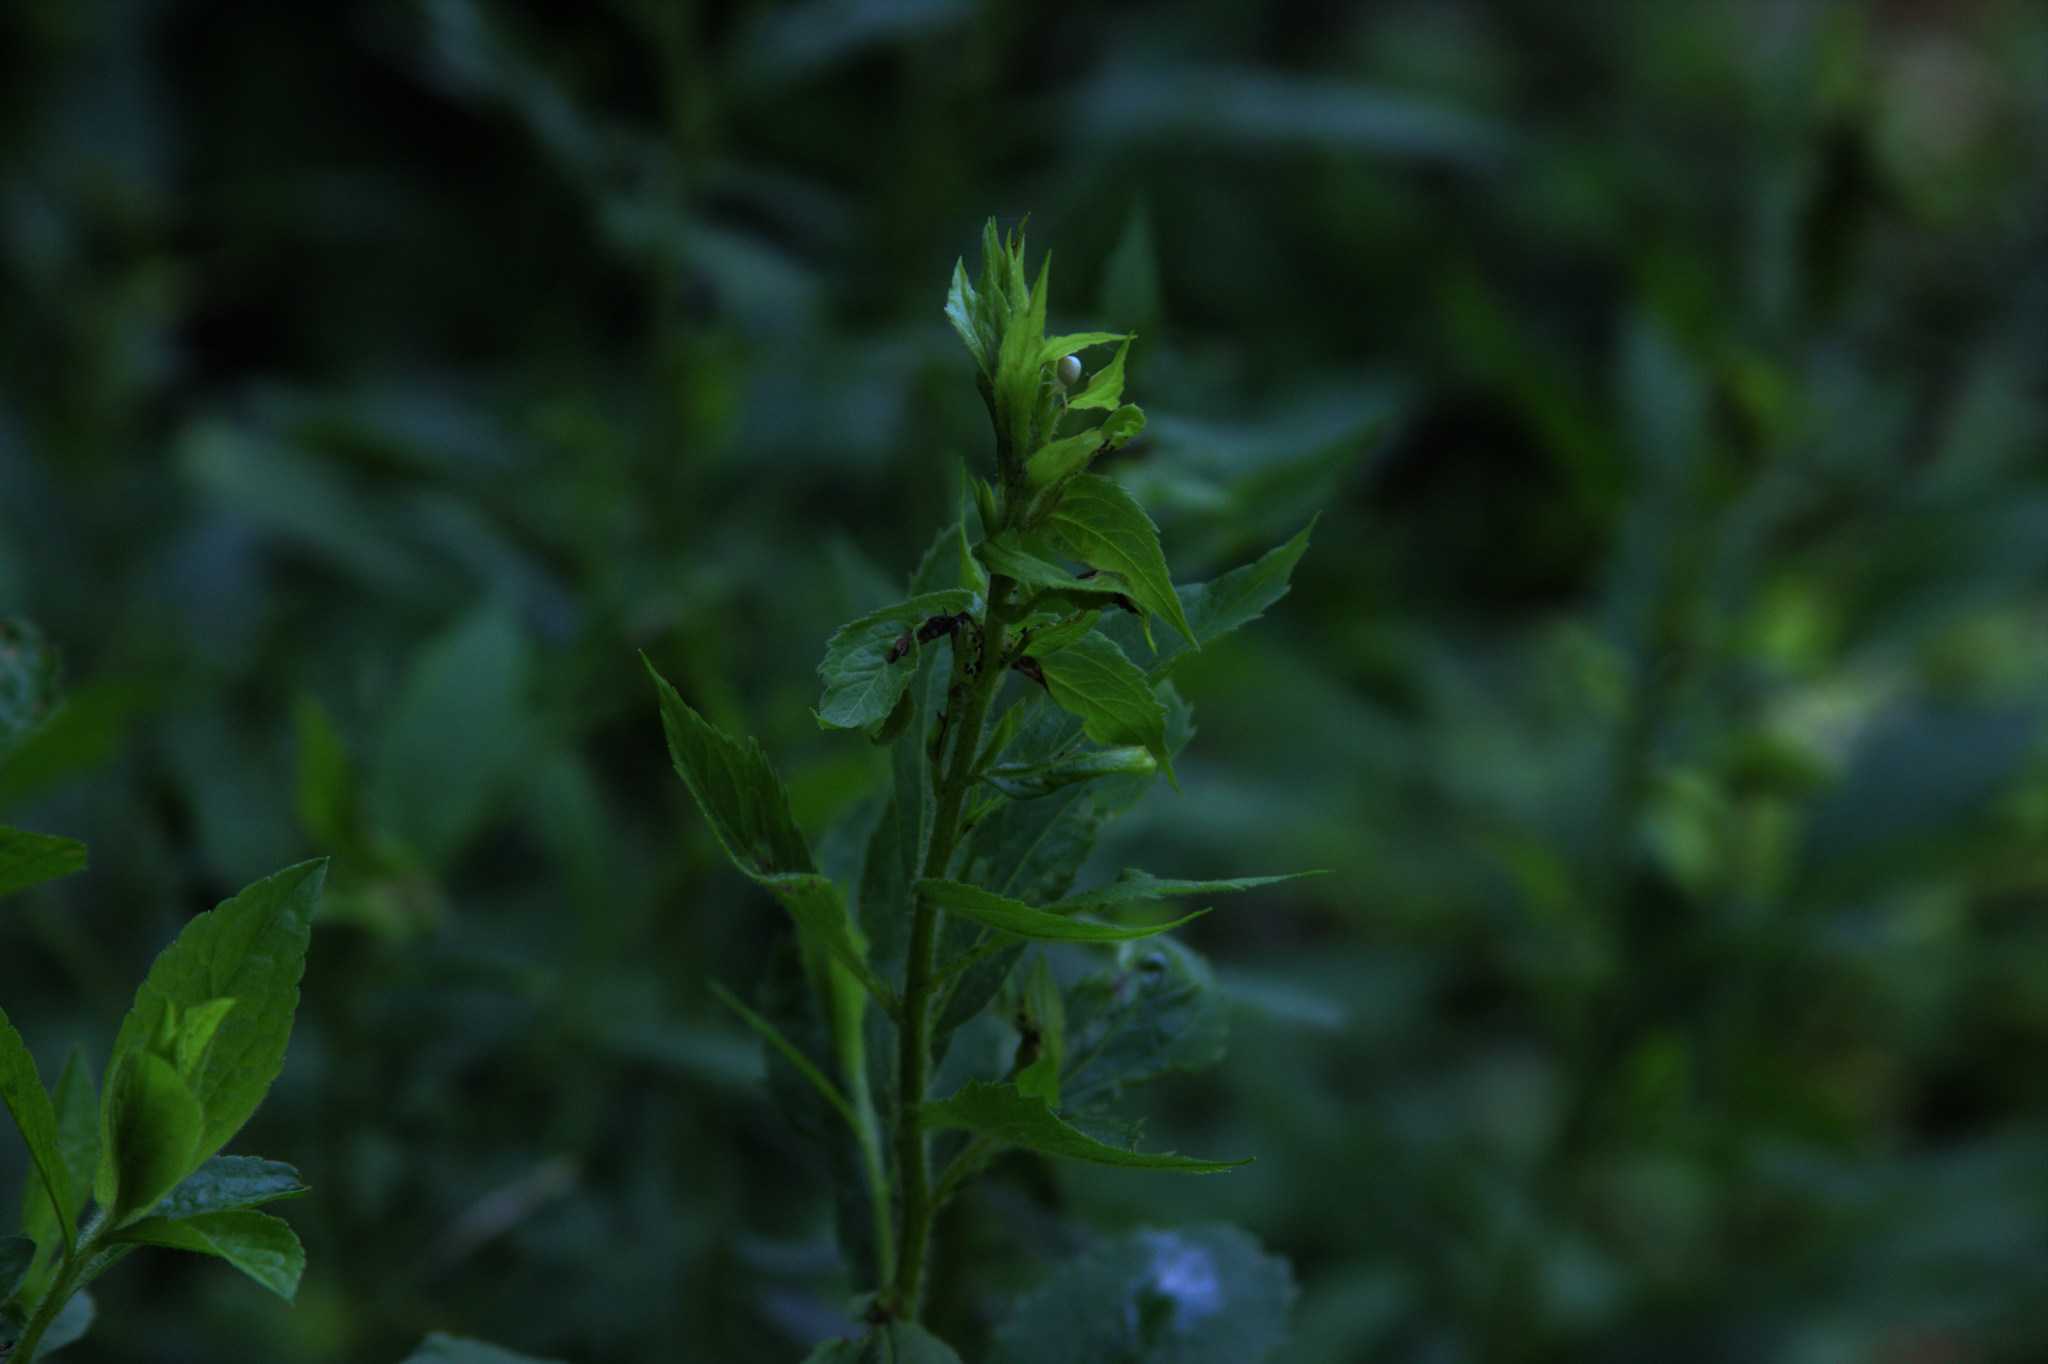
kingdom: Plantae
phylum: Tracheophyta
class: Magnoliopsida
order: Asterales
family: Asteraceae
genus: Solidago
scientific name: Solidago rugosa
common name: Rough-stemmed goldenrod
